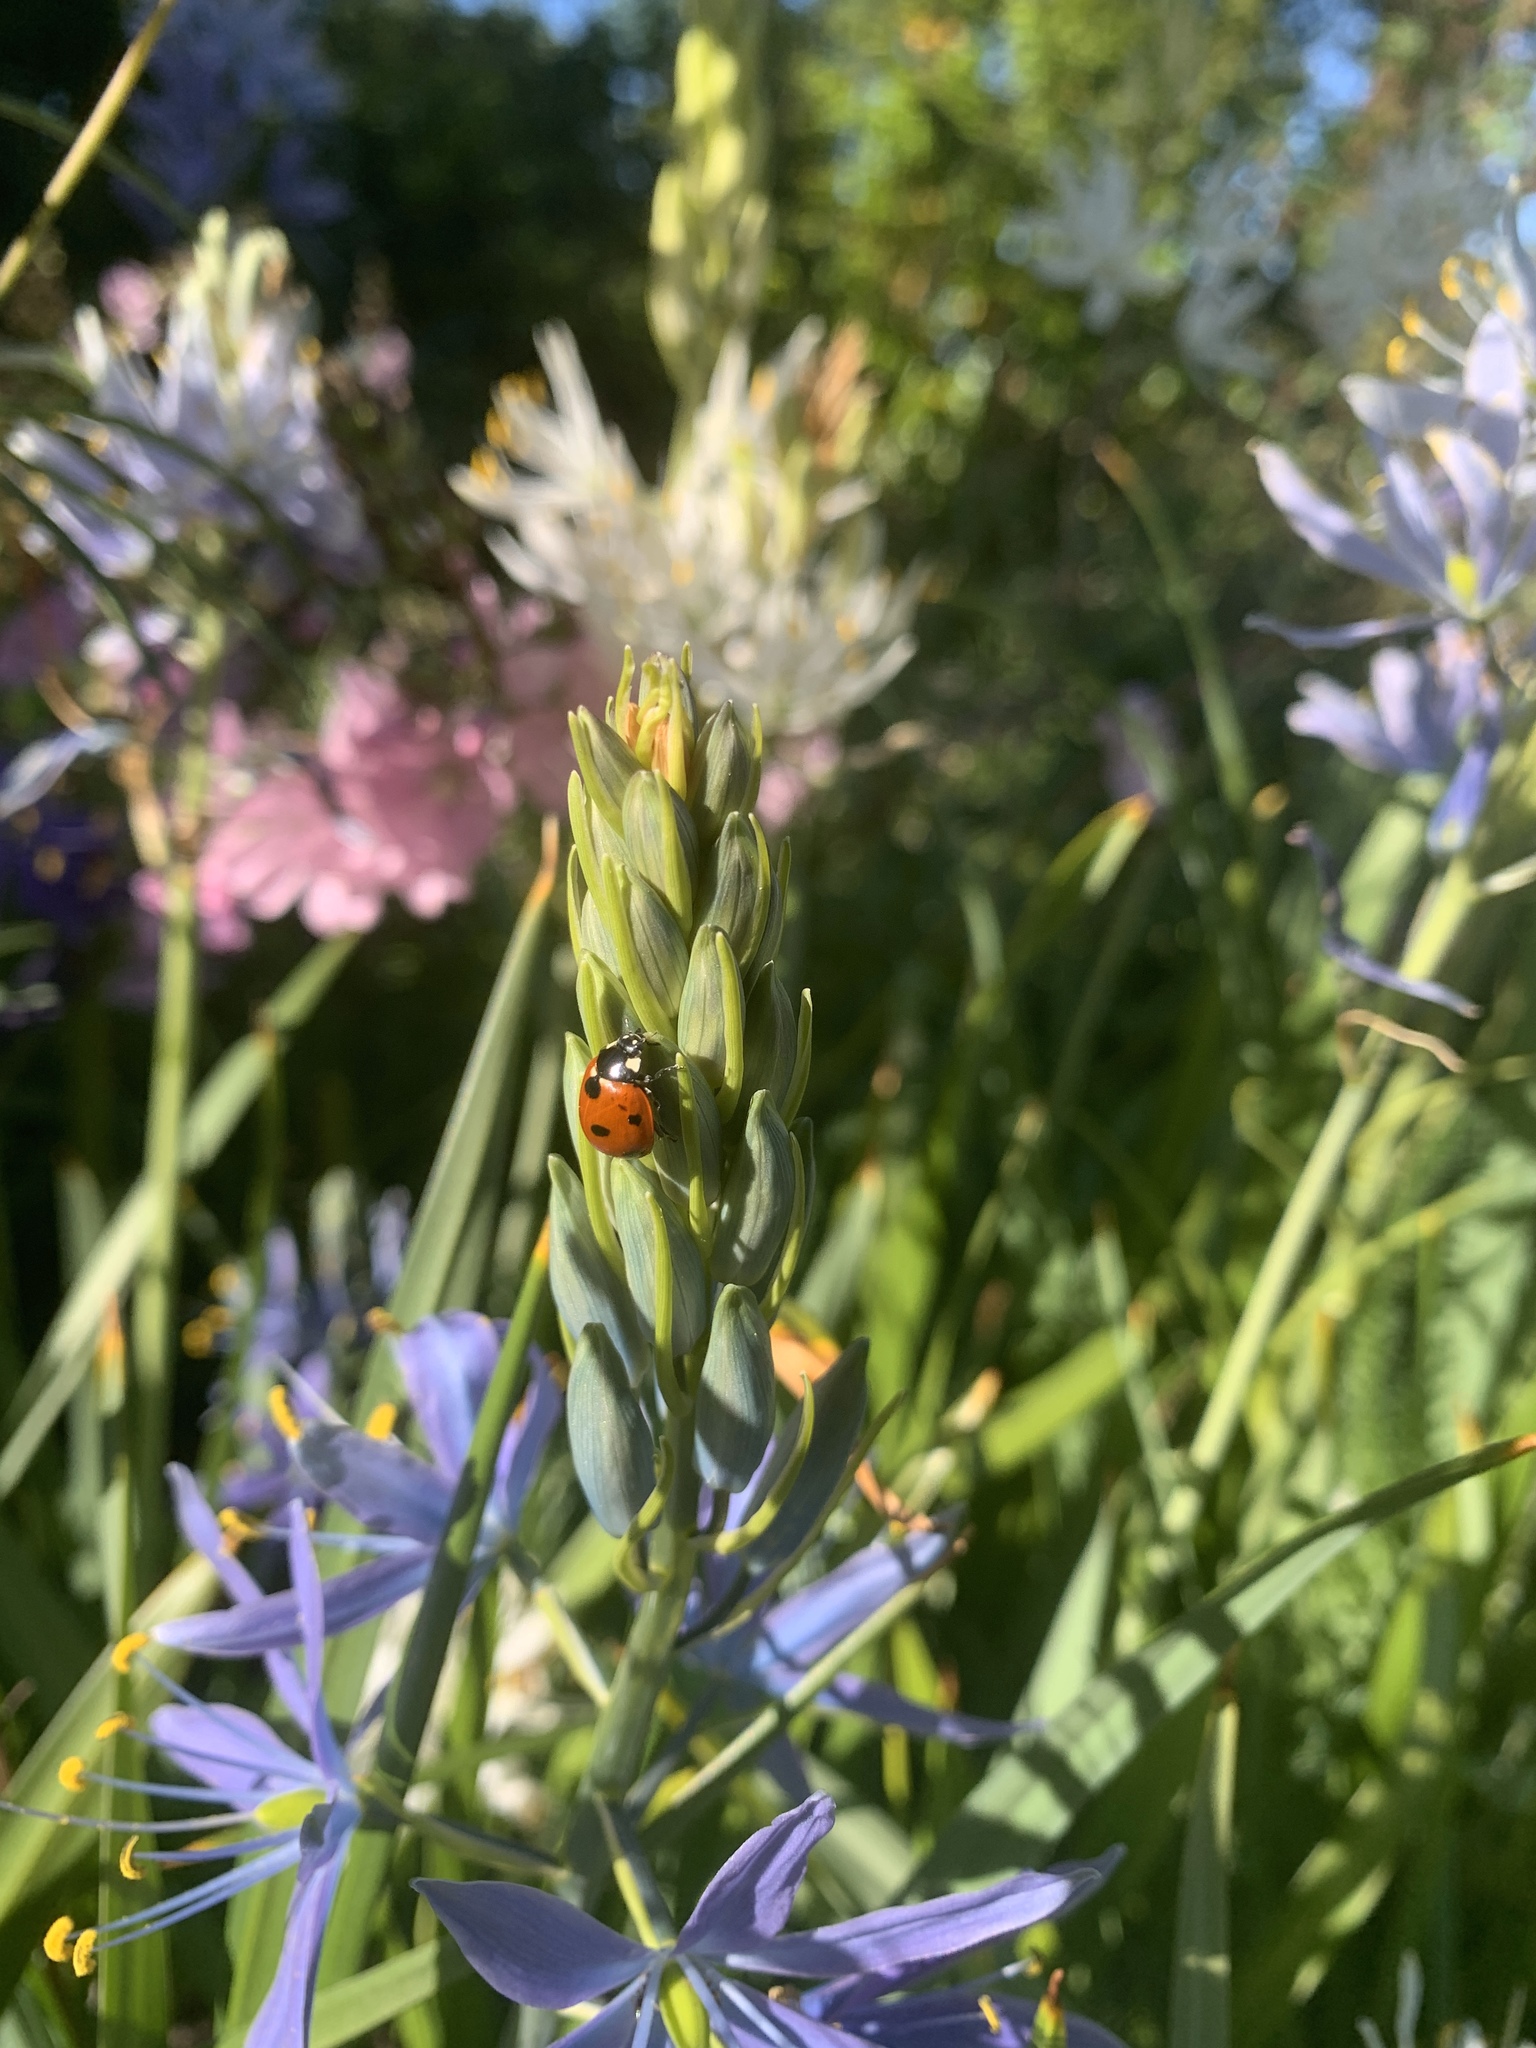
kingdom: Animalia
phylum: Arthropoda
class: Insecta
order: Coleoptera
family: Coccinellidae
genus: Coccinella
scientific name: Coccinella septempunctata
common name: Sevenspotted lady beetle
